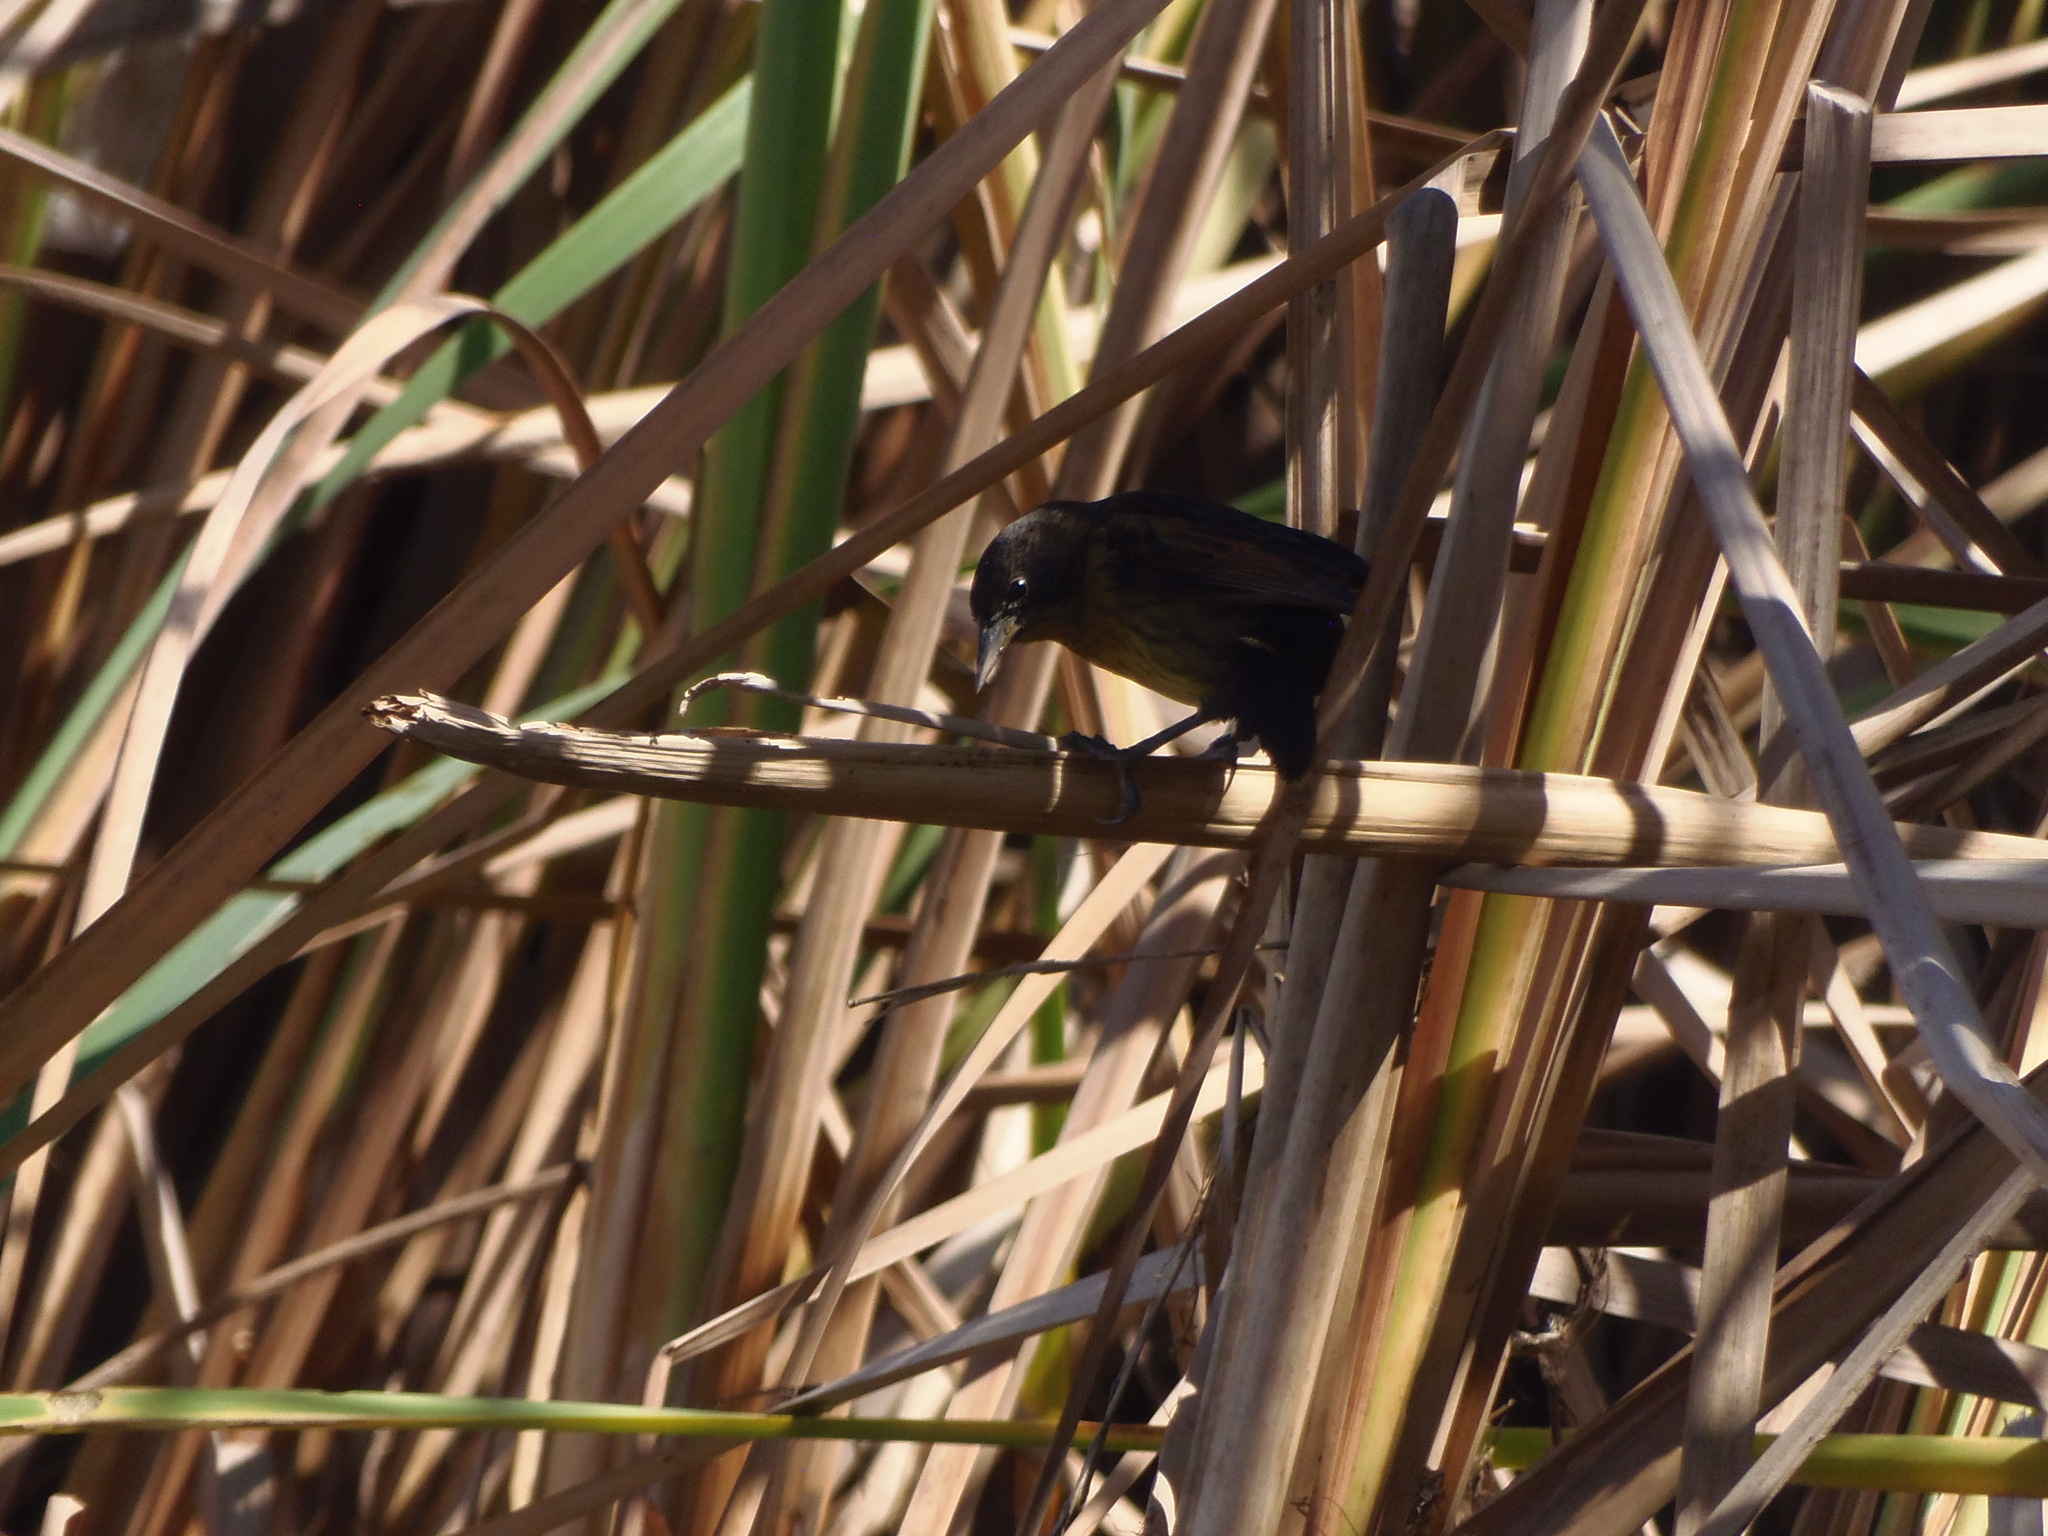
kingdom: Animalia
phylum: Chordata
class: Aves
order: Passeriformes
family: Icteridae
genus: Agelasticus
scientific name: Agelasticus cyanopus
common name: Unicolored blackbird
